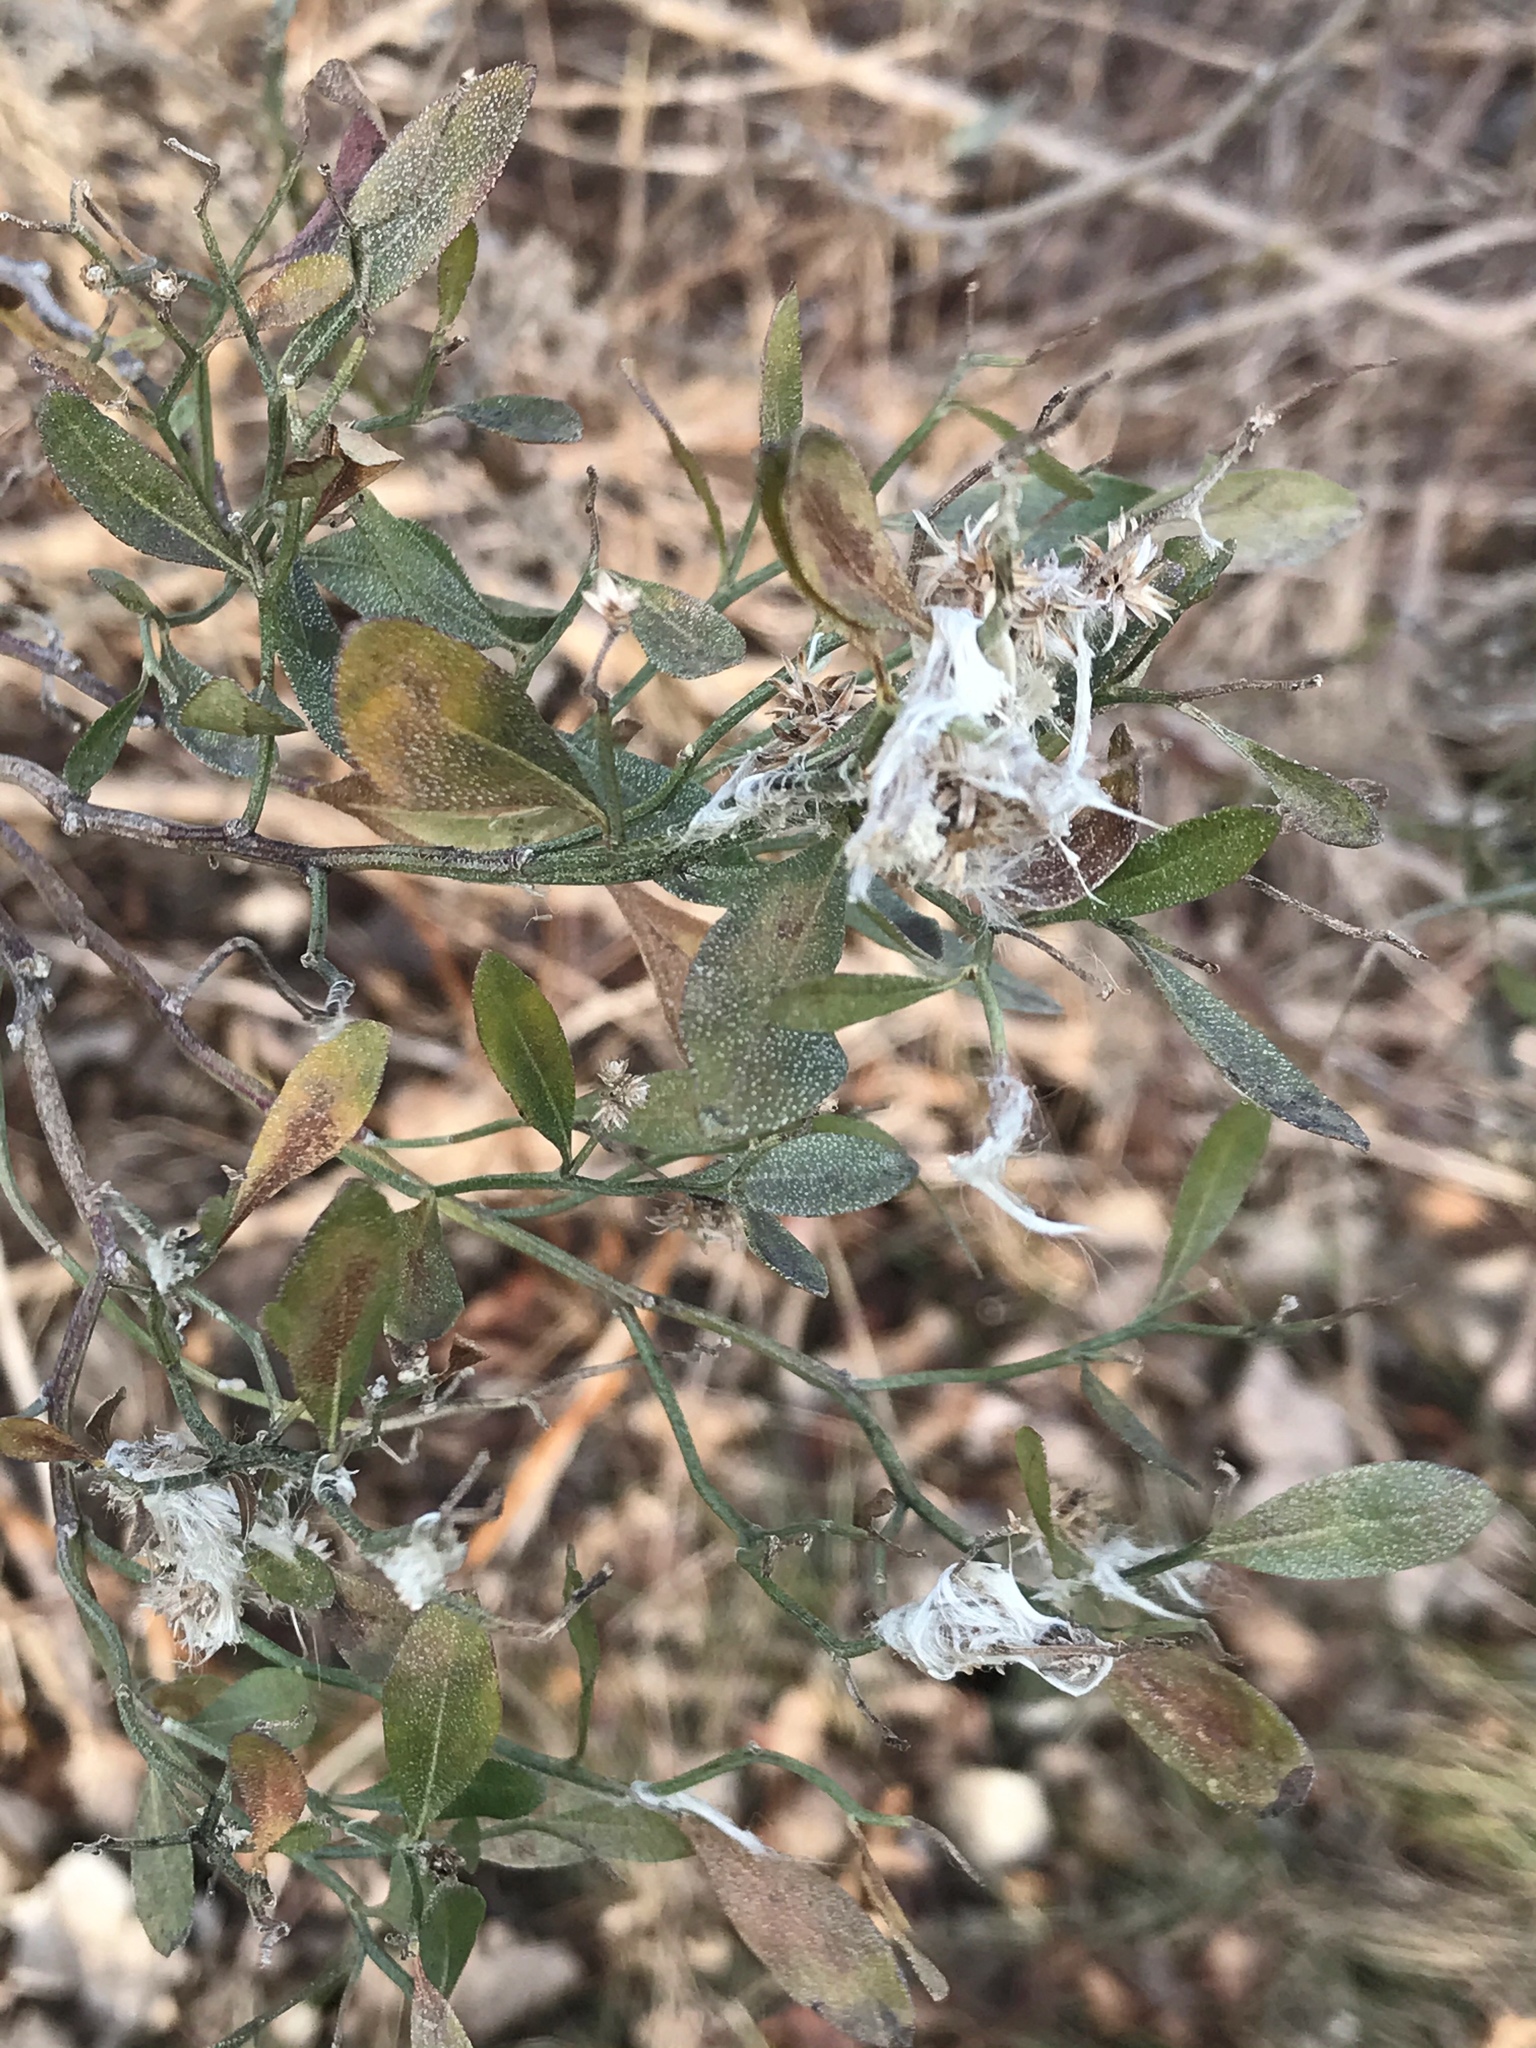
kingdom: Plantae
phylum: Tracheophyta
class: Magnoliopsida
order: Asterales
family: Asteraceae
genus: Baccharis
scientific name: Baccharis halimifolia
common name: Eastern baccharis
